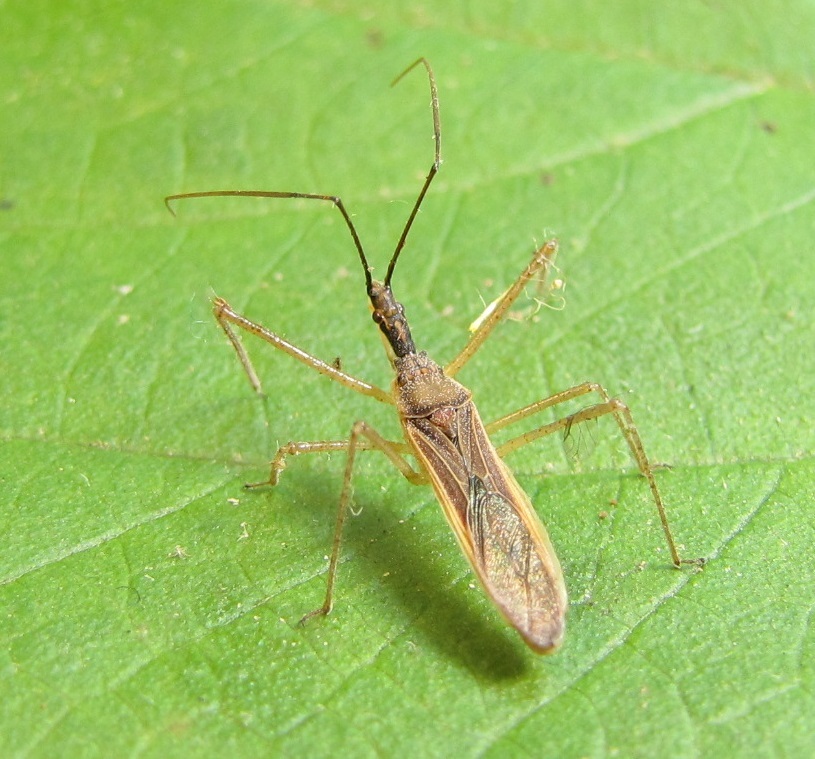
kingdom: Animalia
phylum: Arthropoda
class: Insecta
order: Hemiptera
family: Reduviidae
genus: Zelus
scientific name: Zelus cervicalis
